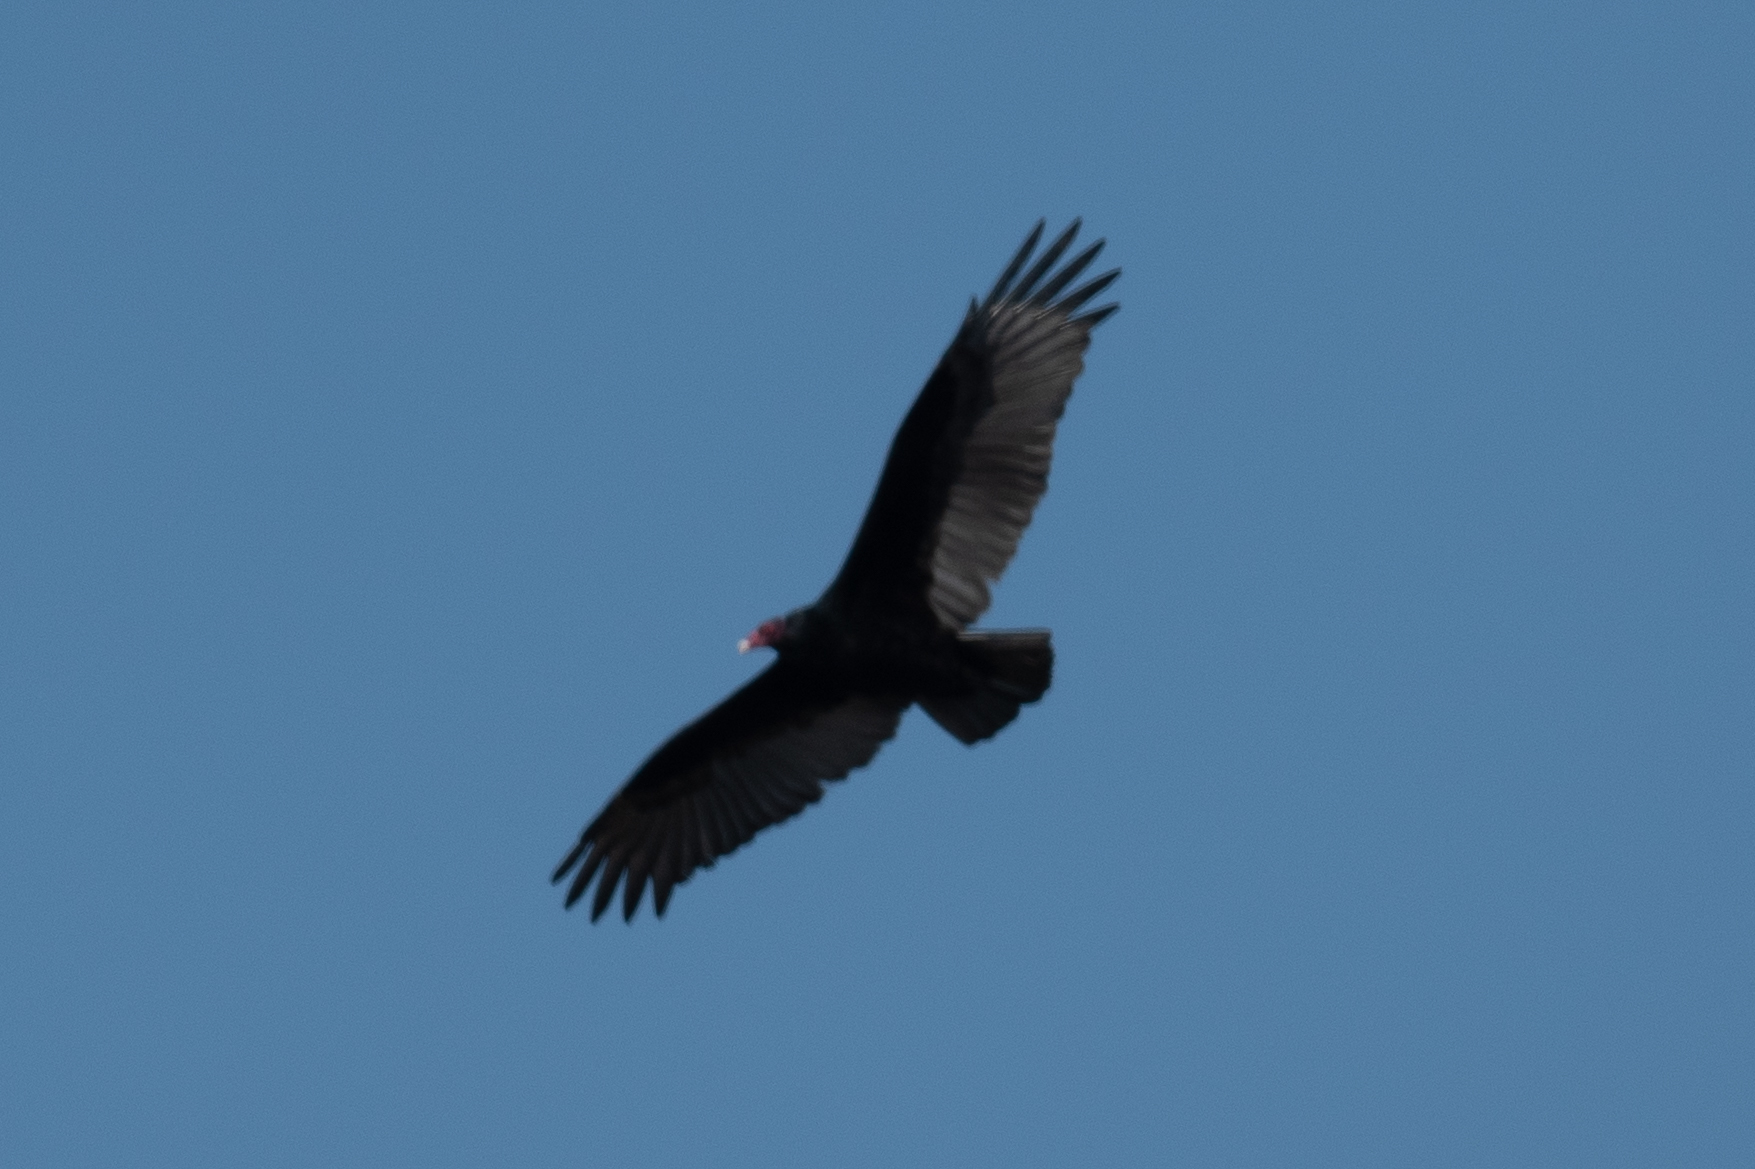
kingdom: Animalia
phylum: Chordata
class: Aves
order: Accipitriformes
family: Cathartidae
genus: Cathartes
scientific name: Cathartes aura
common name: Turkey vulture
